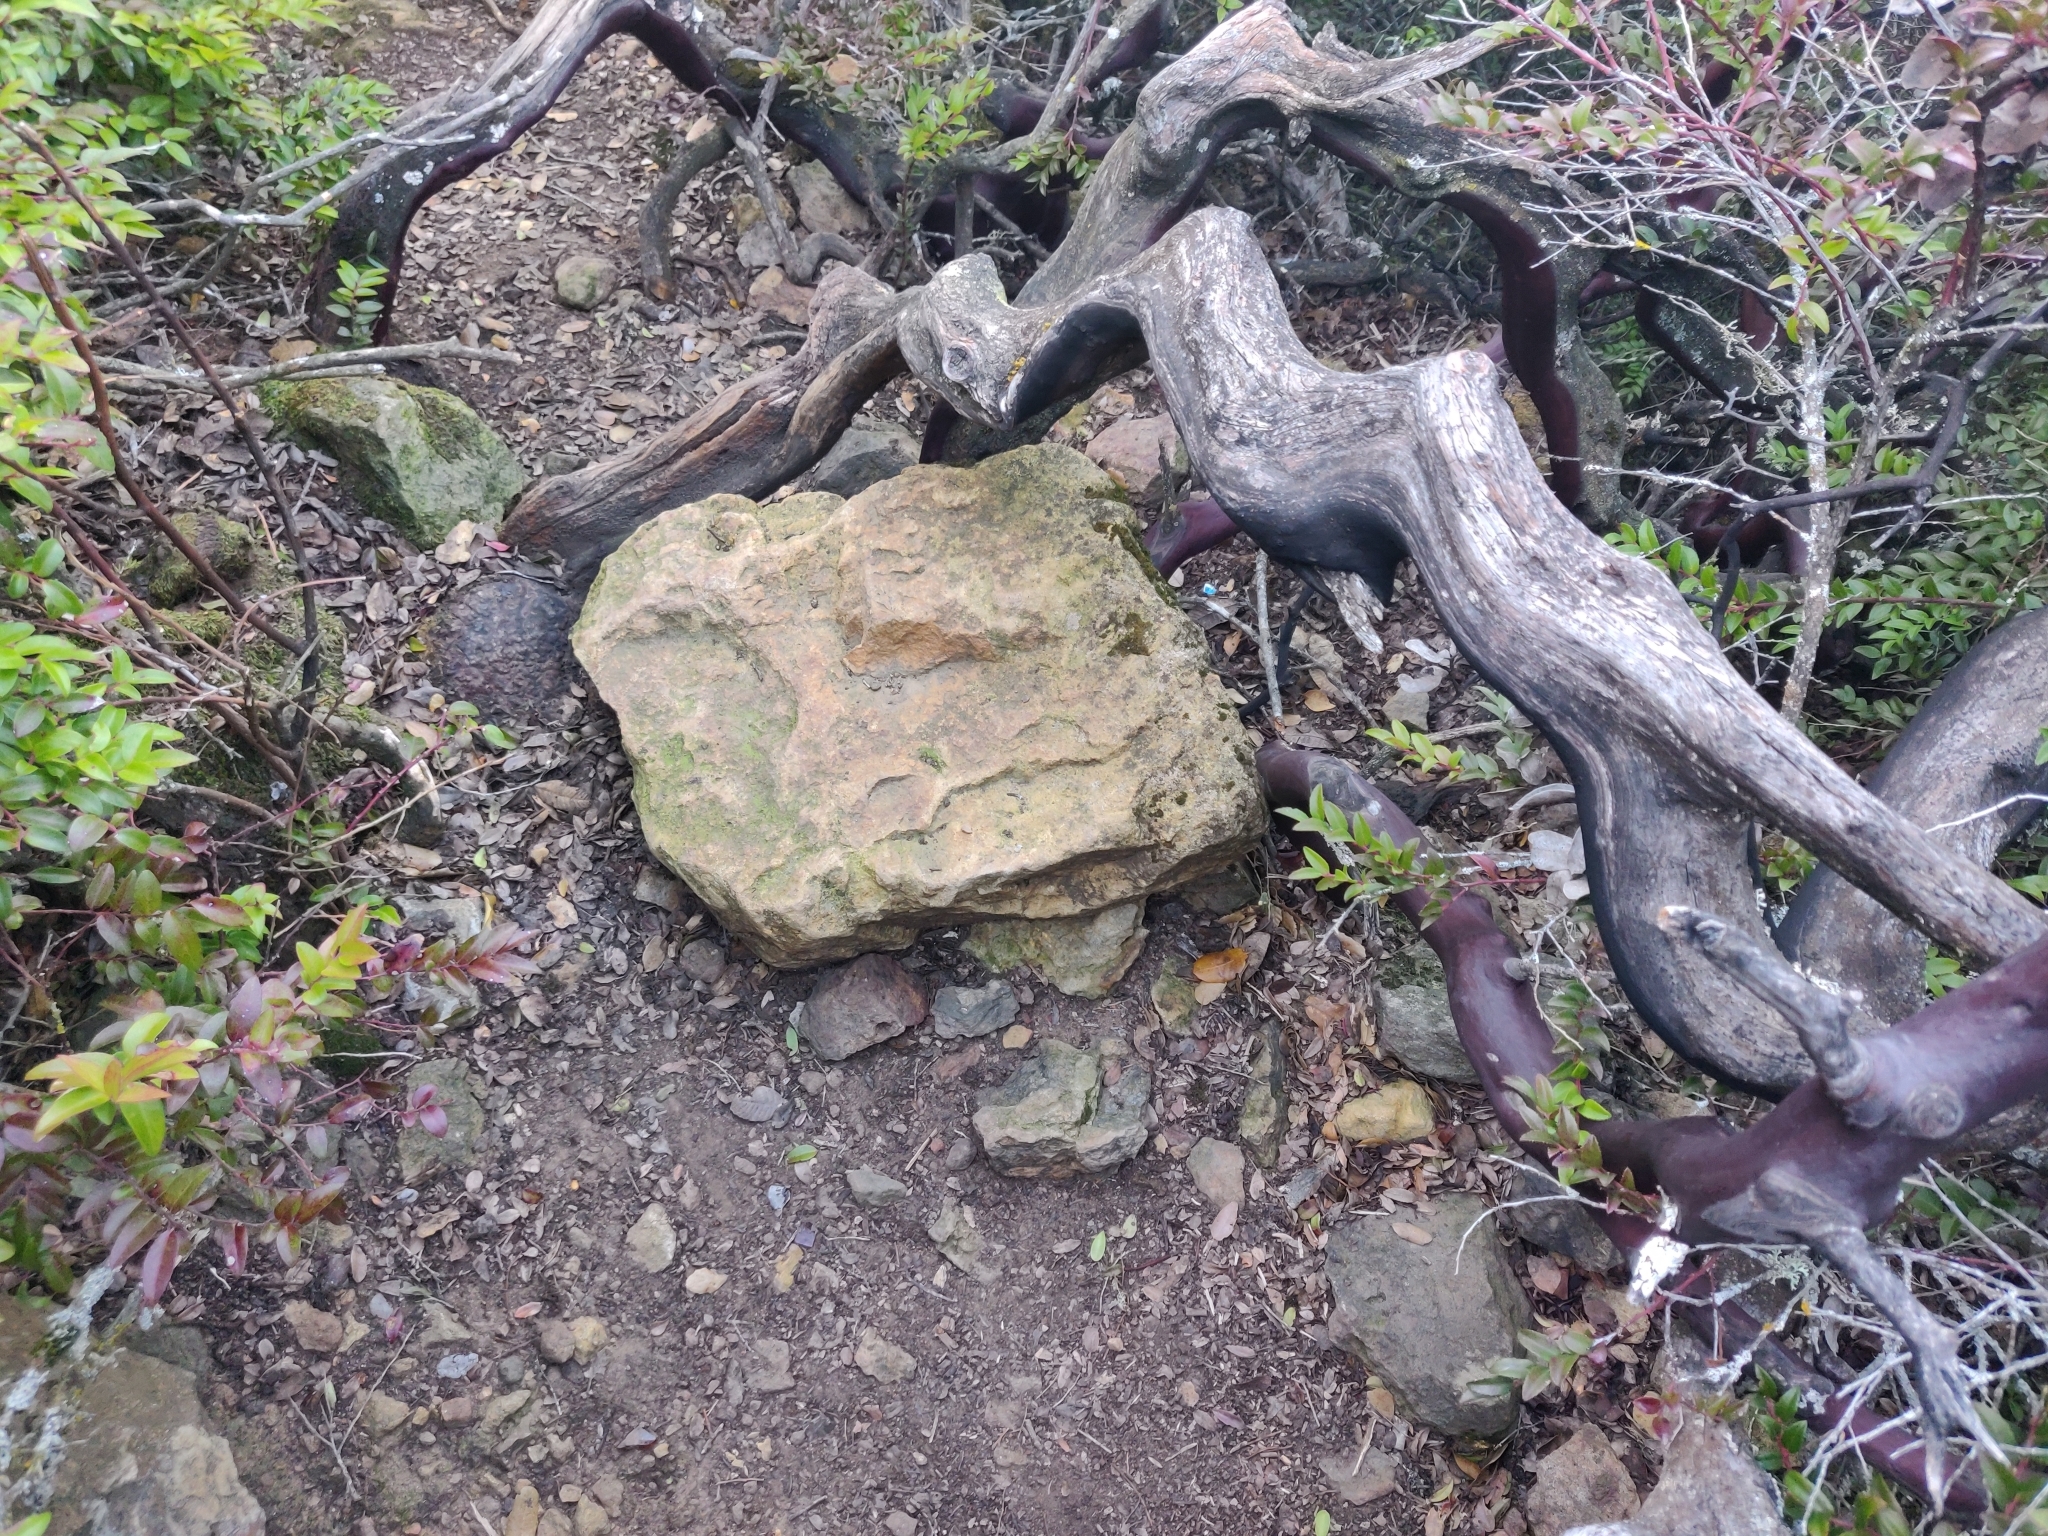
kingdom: Plantae
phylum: Tracheophyta
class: Magnoliopsida
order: Ericales
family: Ericaceae
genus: Arctostaphylos
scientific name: Arctostaphylos glandulosa
